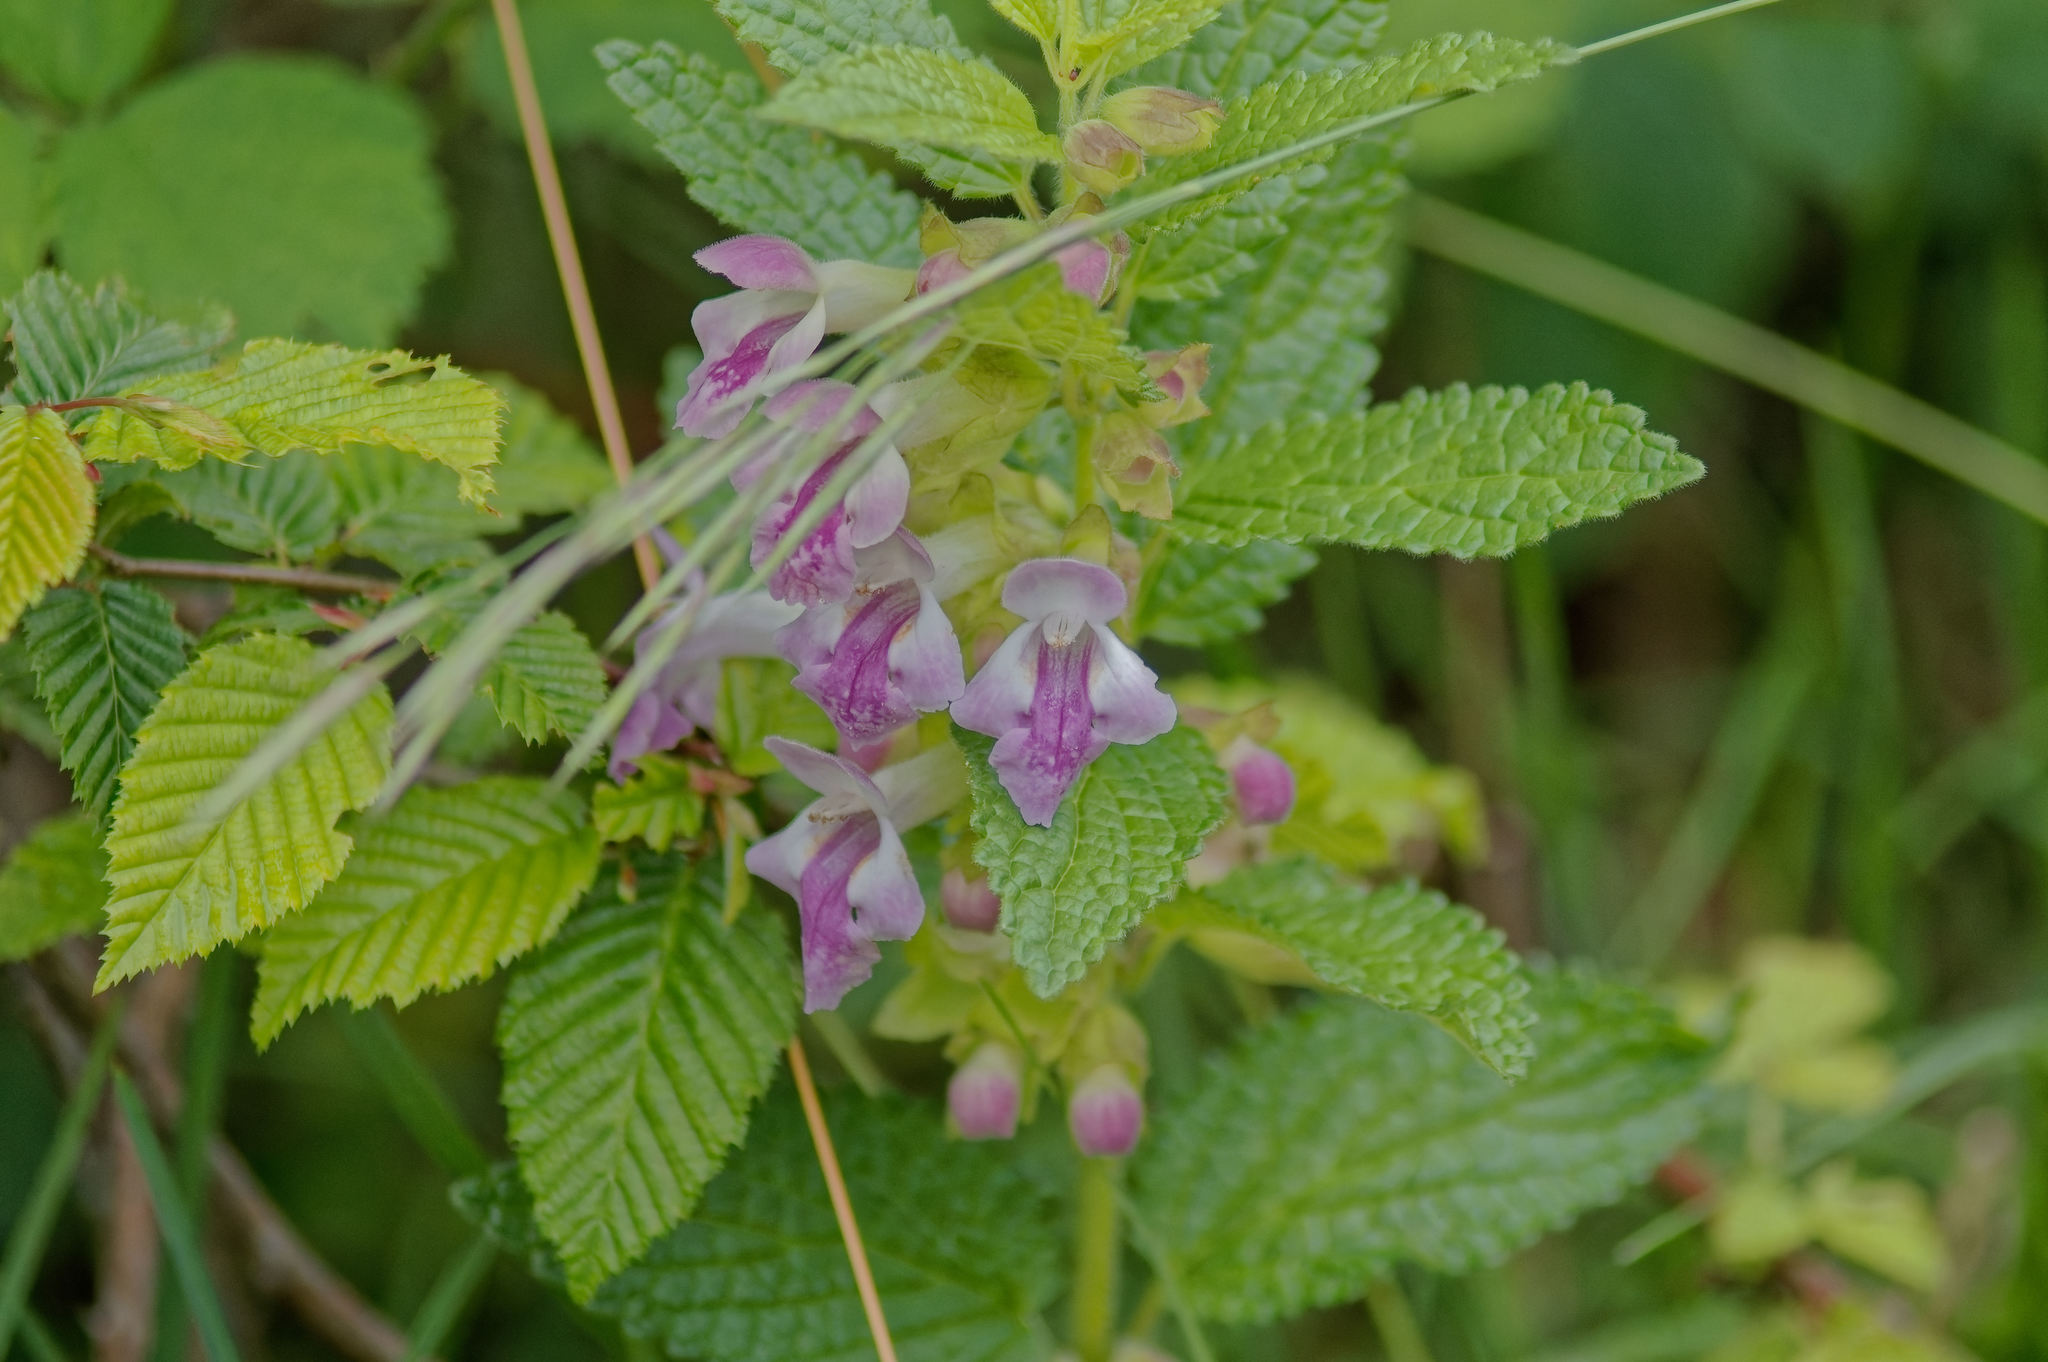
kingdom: Plantae
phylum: Tracheophyta
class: Magnoliopsida
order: Lamiales
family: Lamiaceae
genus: Melittis
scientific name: Melittis melissophyllum
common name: Bastard balm
